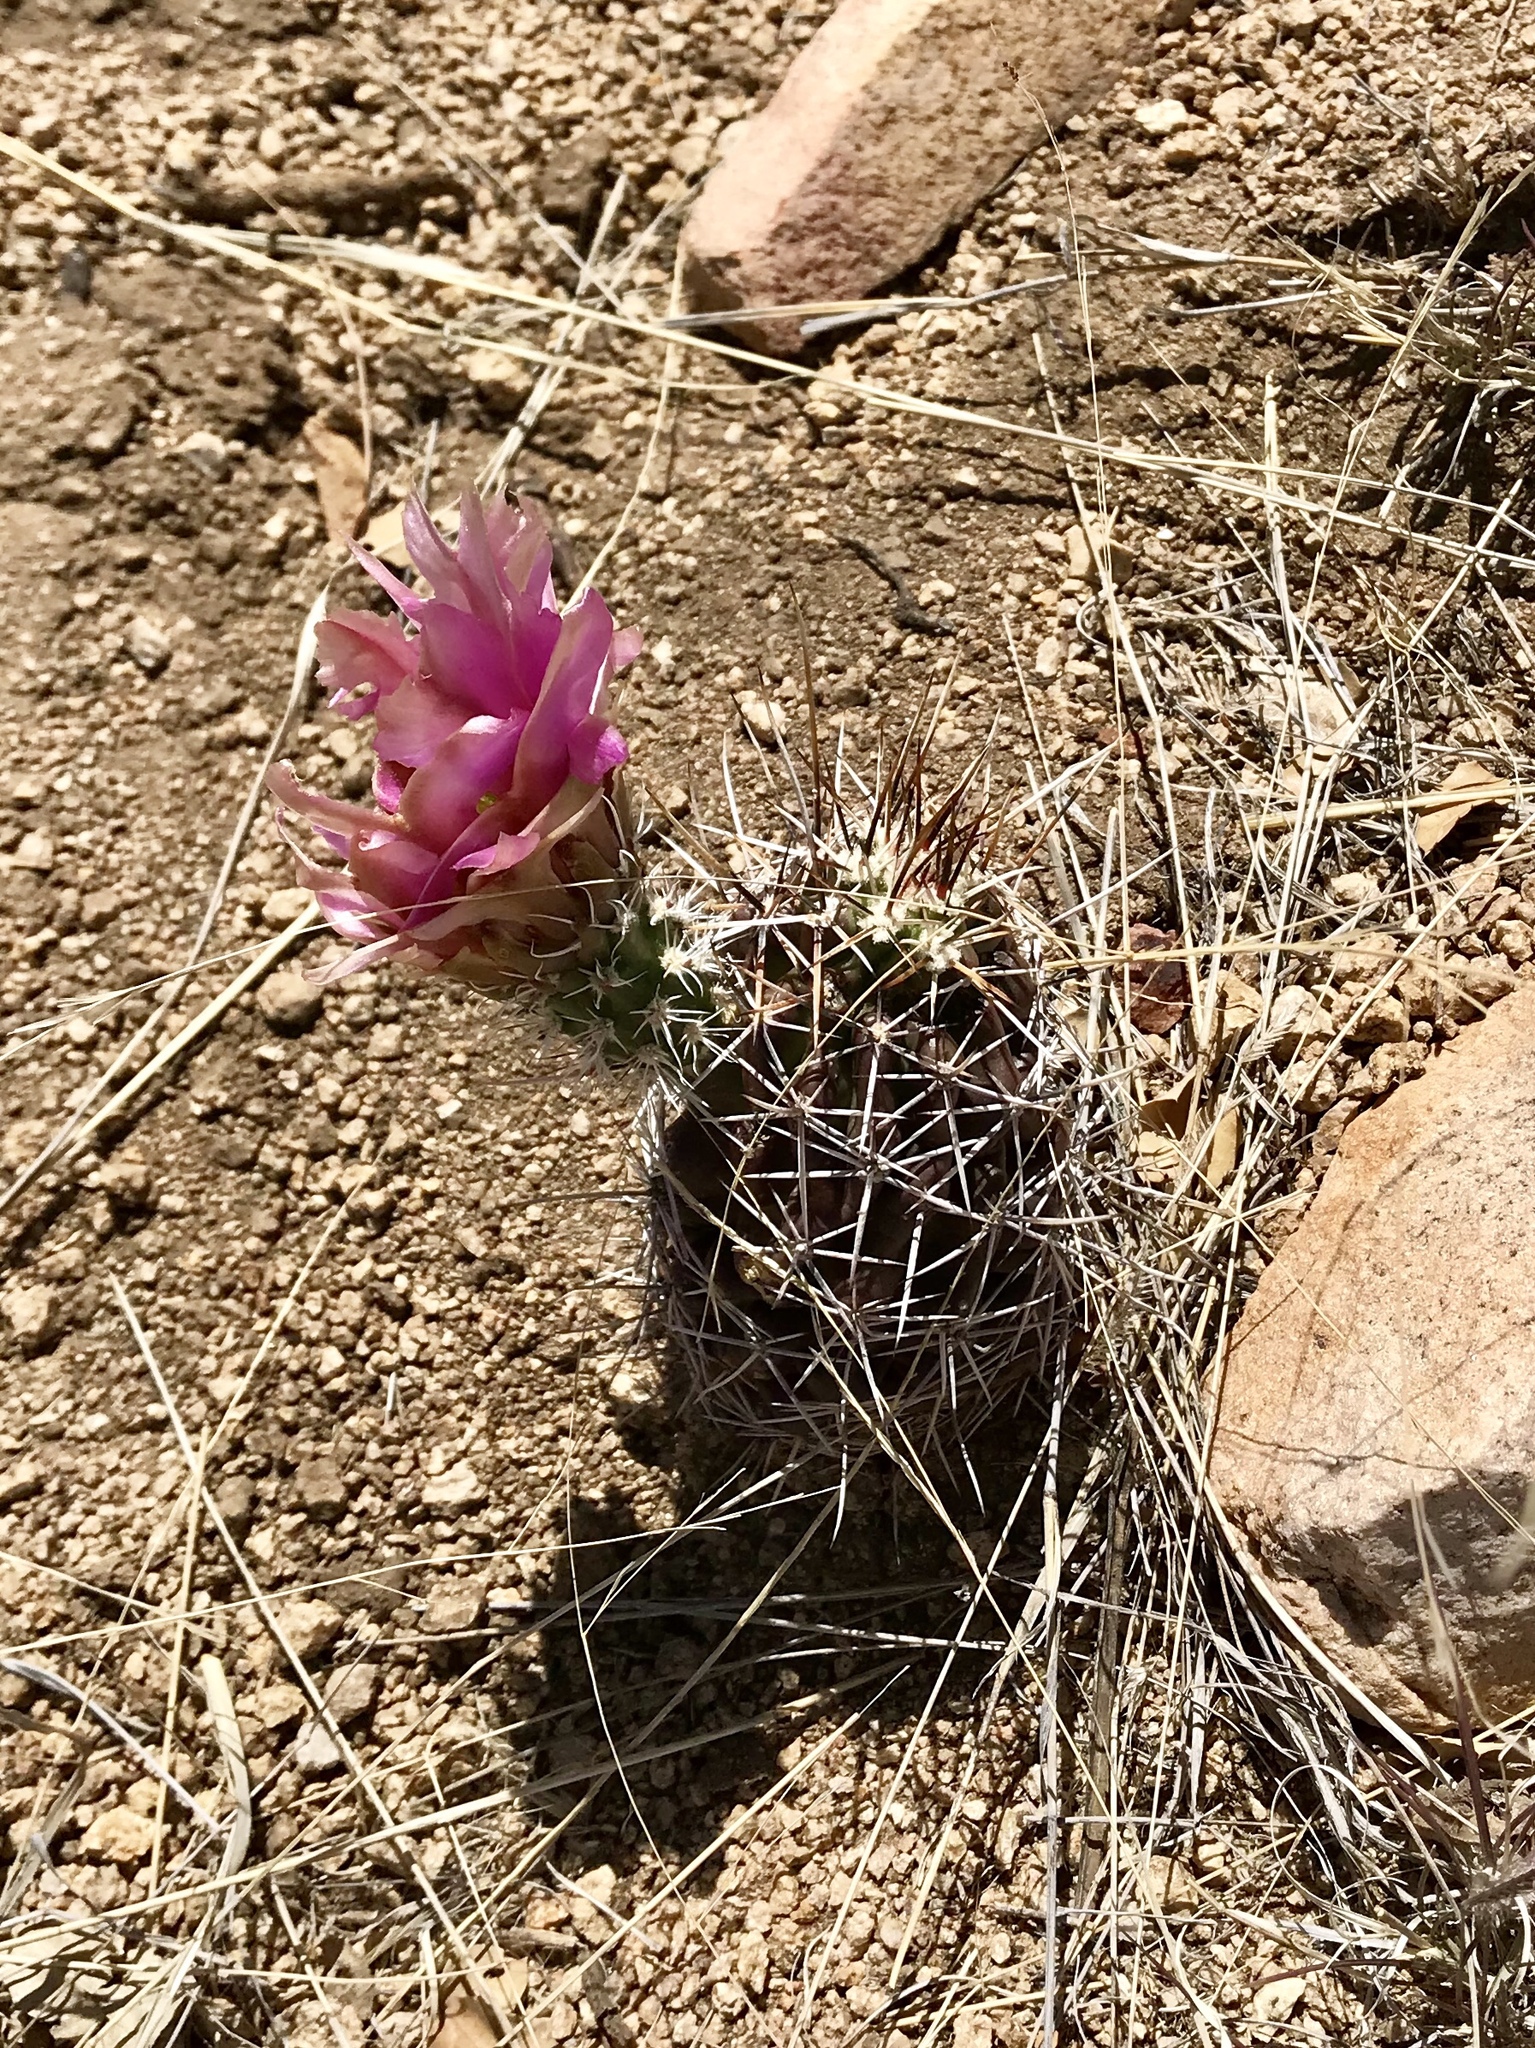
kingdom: Plantae
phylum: Tracheophyta
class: Magnoliopsida
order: Caryophyllales
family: Cactaceae
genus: Echinocereus
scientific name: Echinocereus fendleri
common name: Fendler's hedgehog cactus
